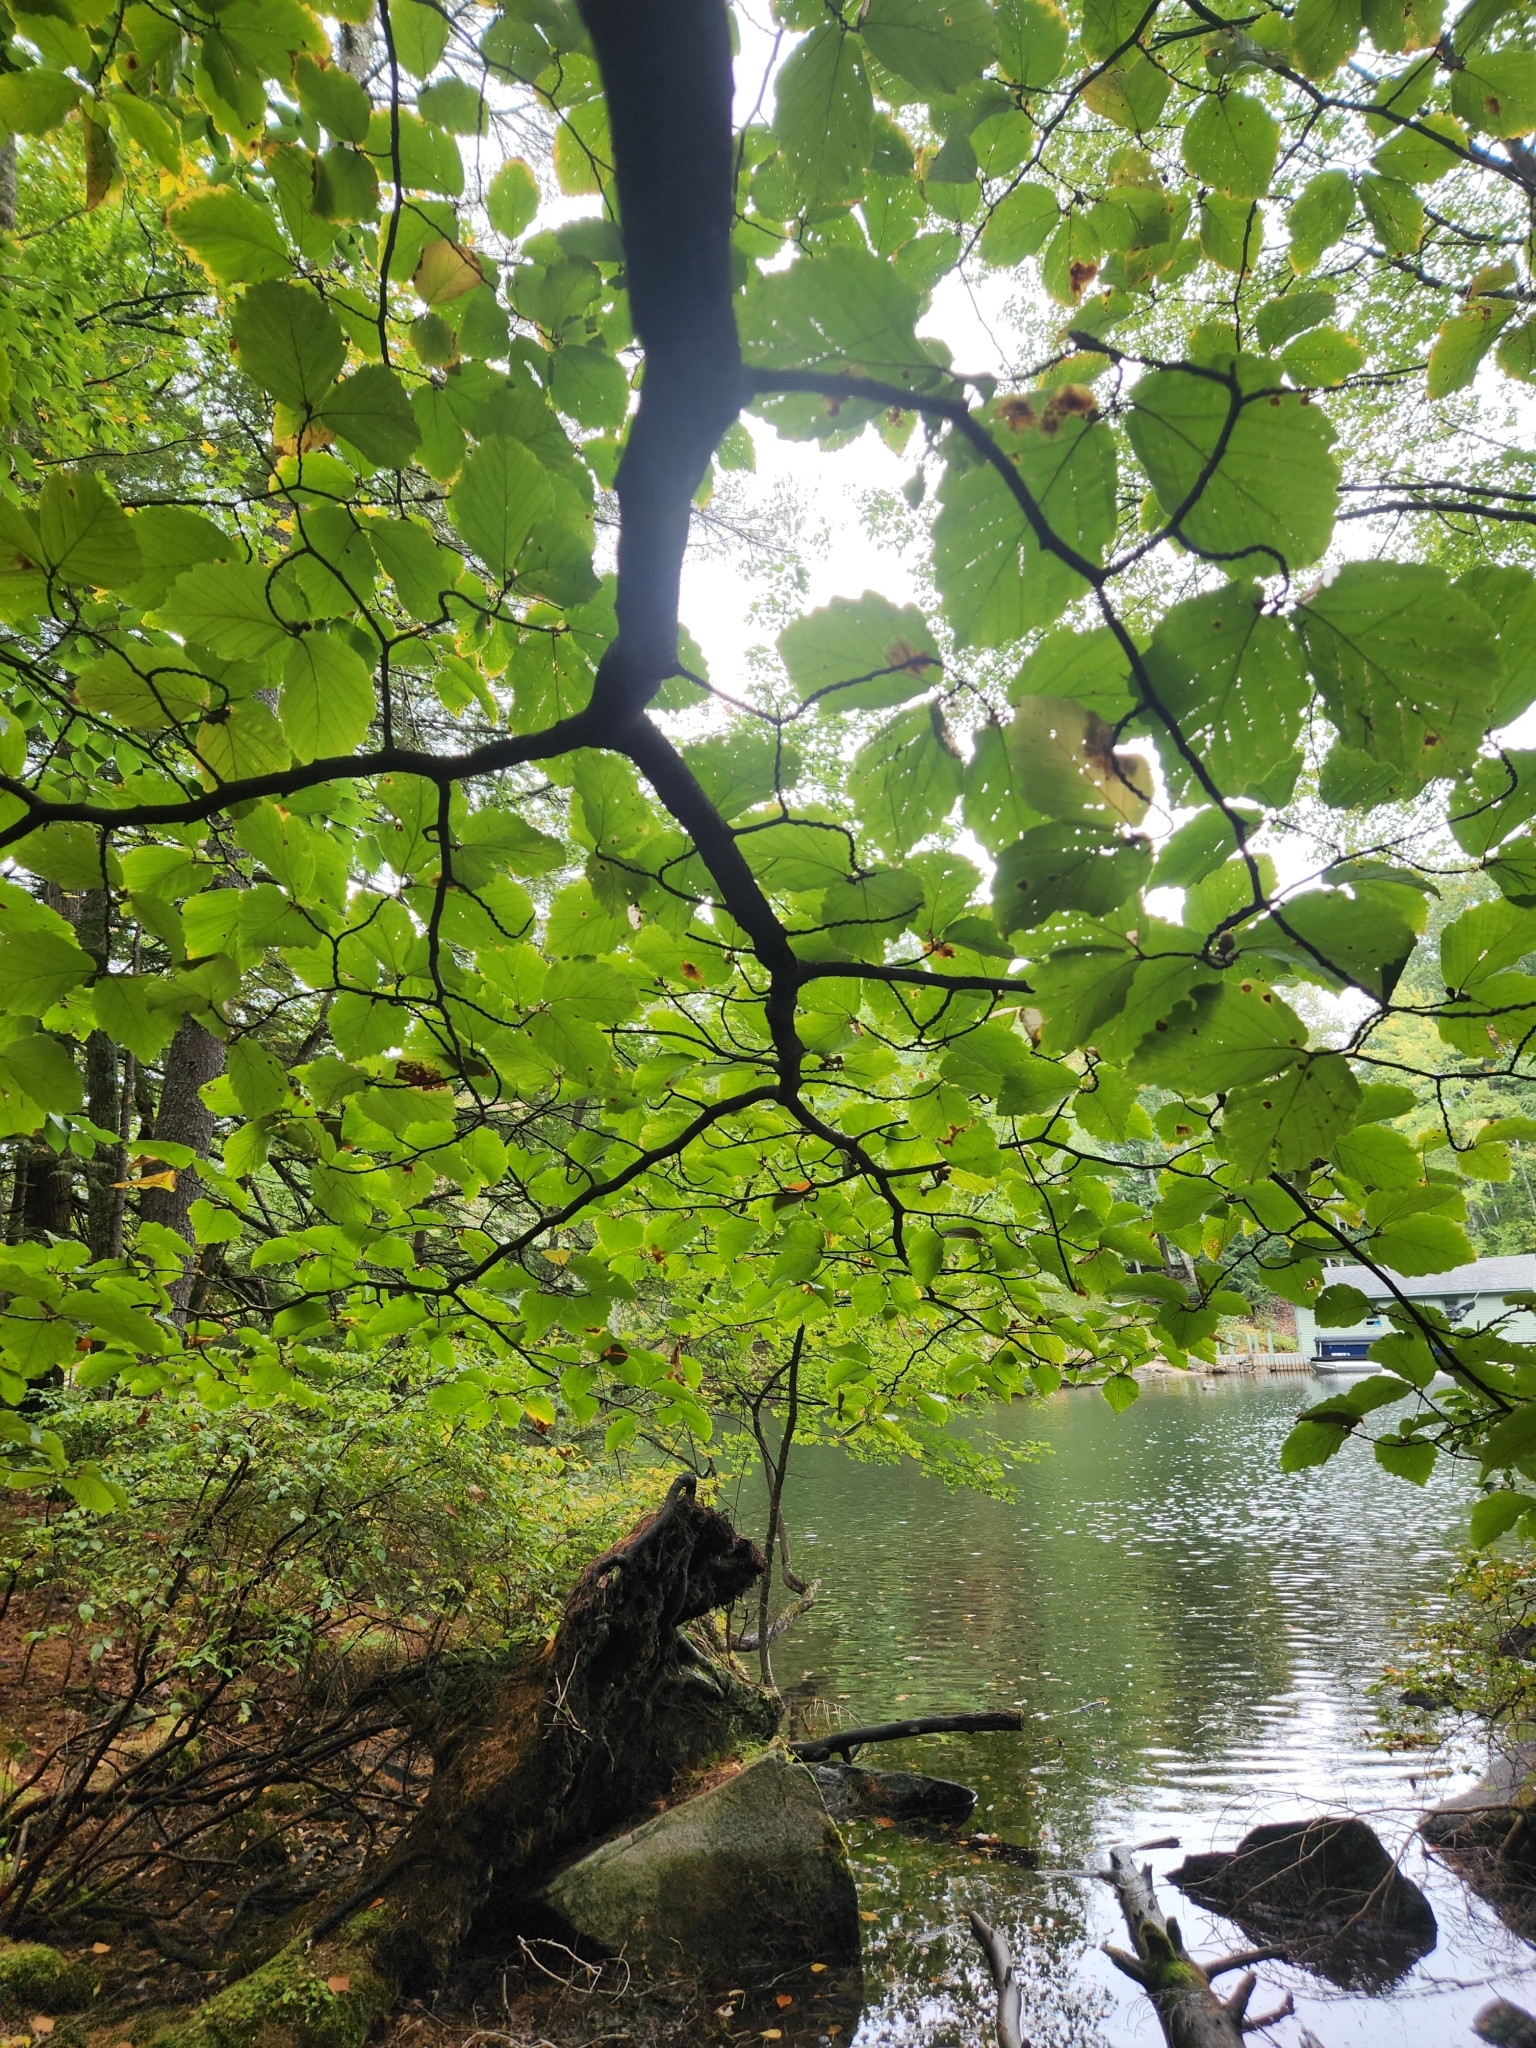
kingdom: Plantae
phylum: Tracheophyta
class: Magnoliopsida
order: Saxifragales
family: Hamamelidaceae
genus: Hamamelis
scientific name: Hamamelis virginiana
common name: Witch-hazel
